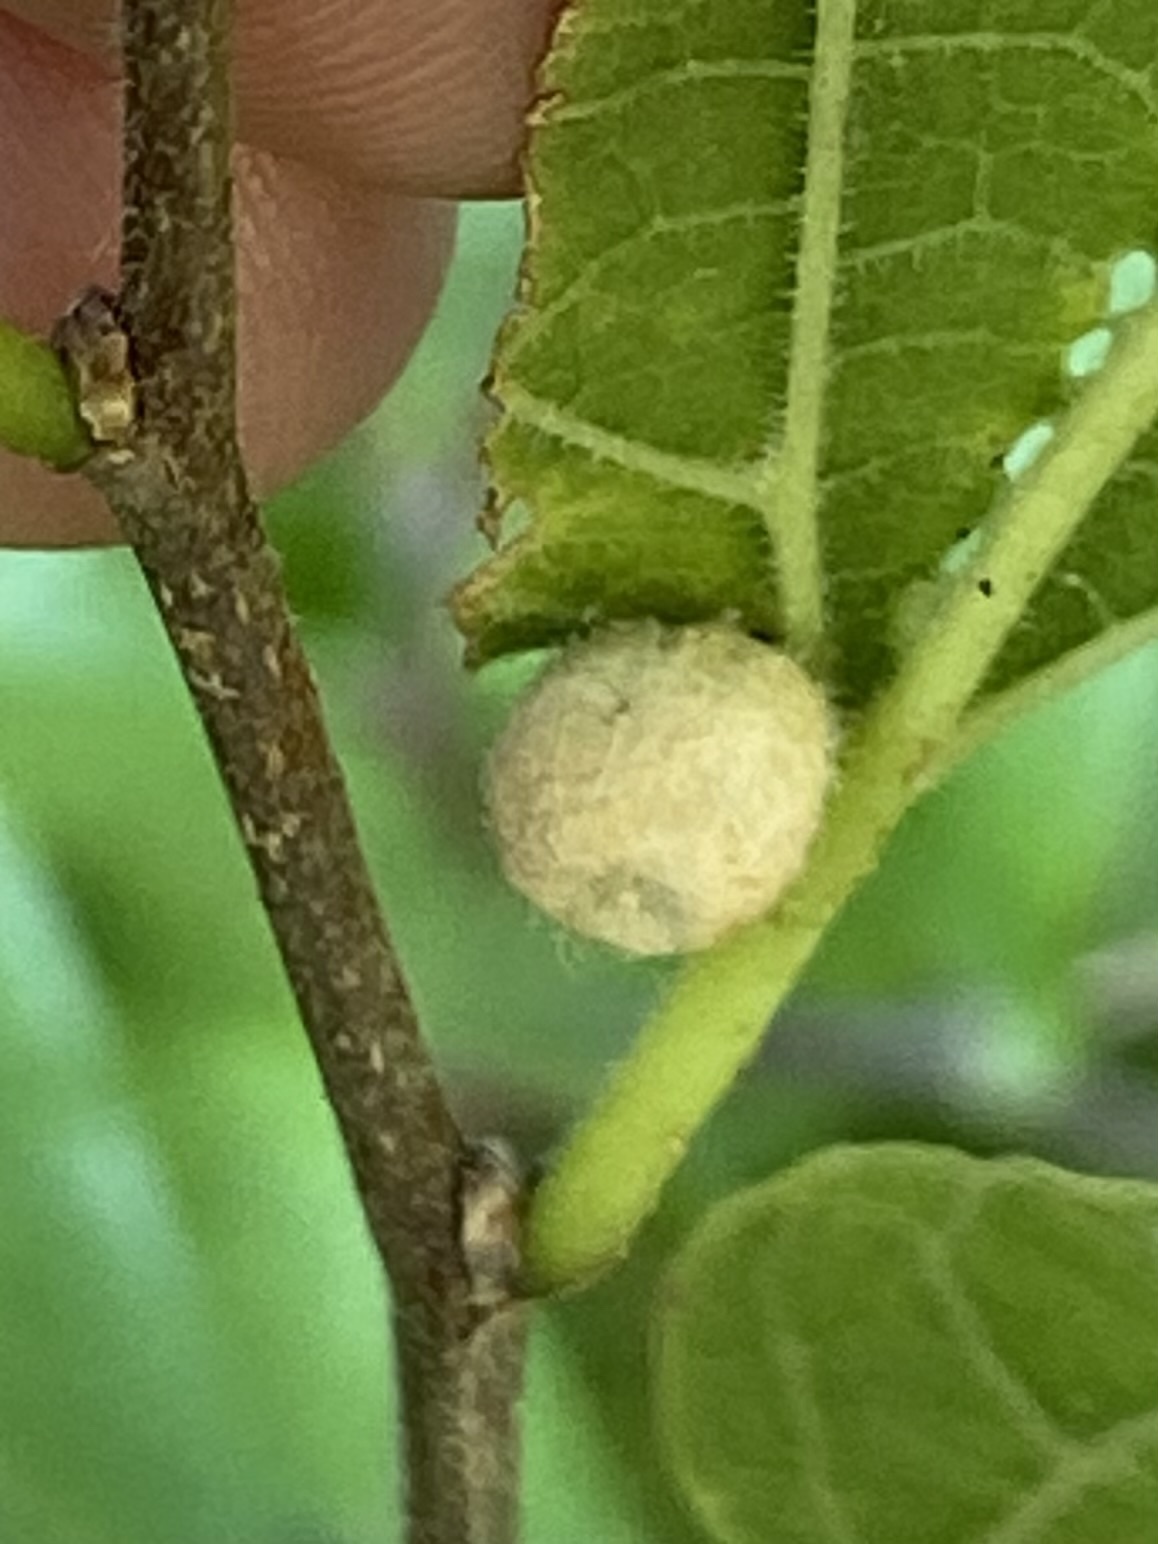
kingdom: Animalia
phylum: Arthropoda
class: Insecta
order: Diptera
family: Cecidomyiidae
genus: Celticecis
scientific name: Celticecis pubescens
